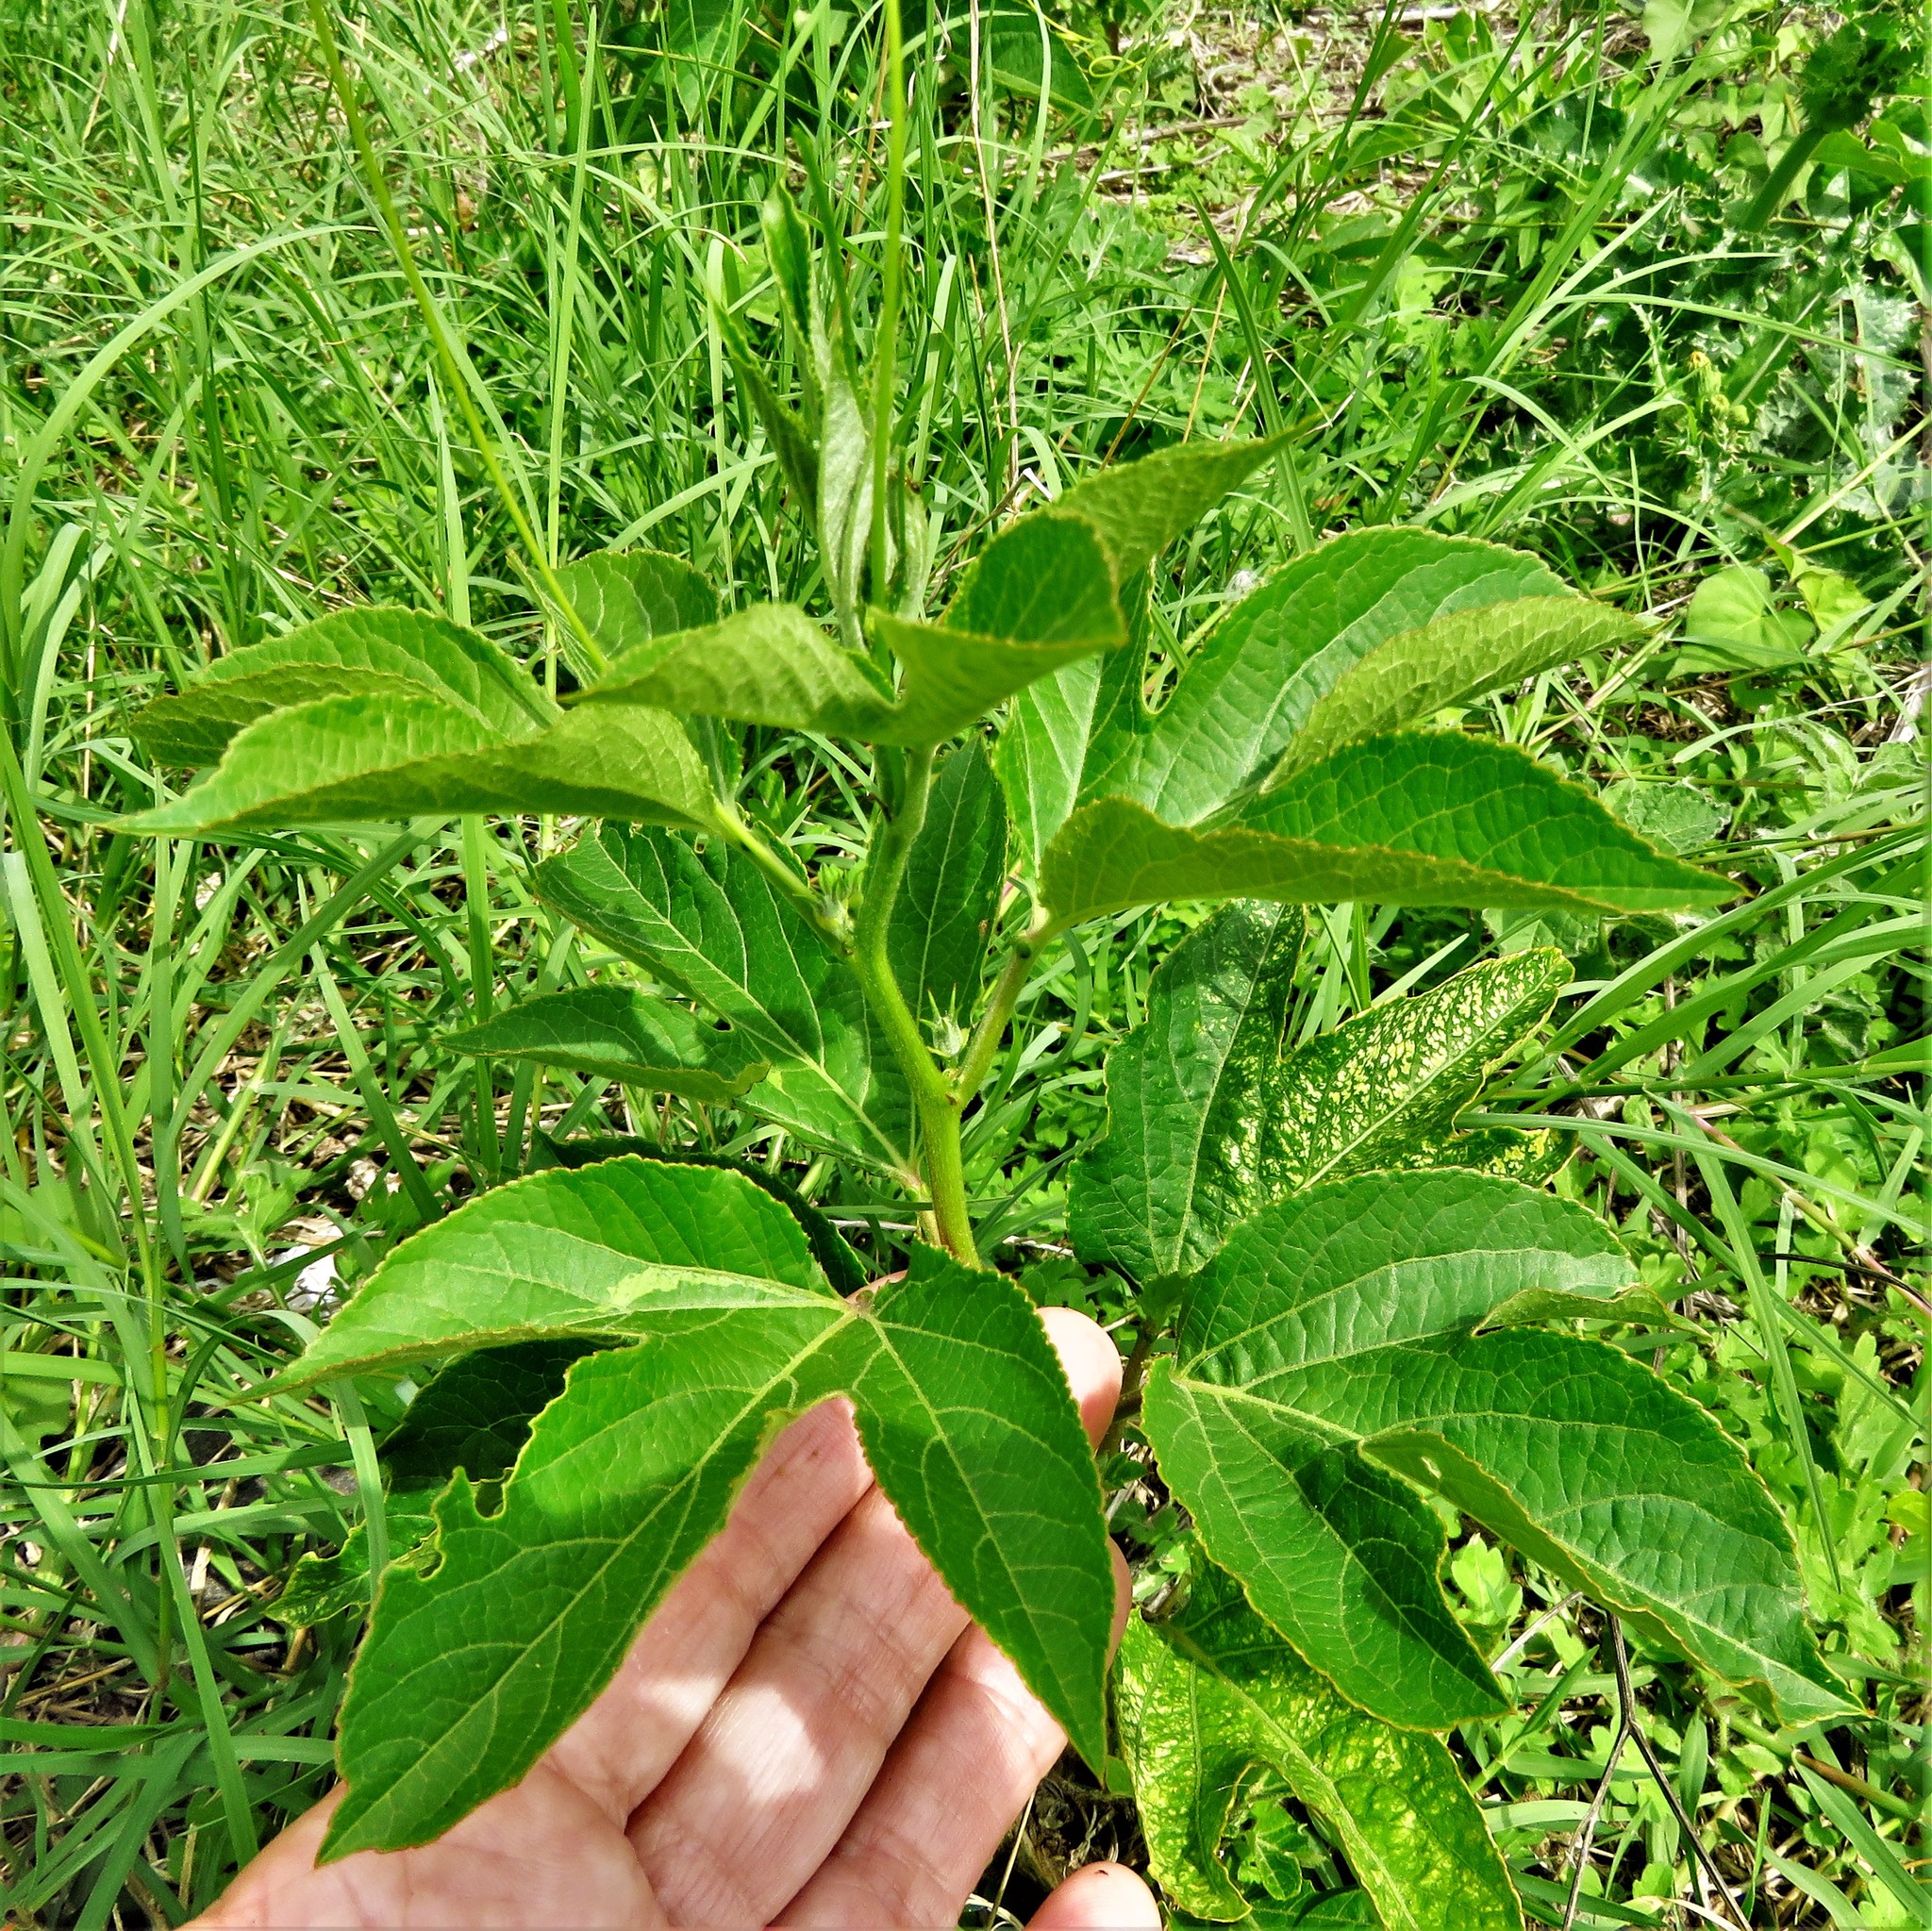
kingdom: Plantae
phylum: Tracheophyta
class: Magnoliopsida
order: Malpighiales
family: Passifloraceae
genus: Passiflora
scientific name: Passiflora incarnata
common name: Apricot-vine
